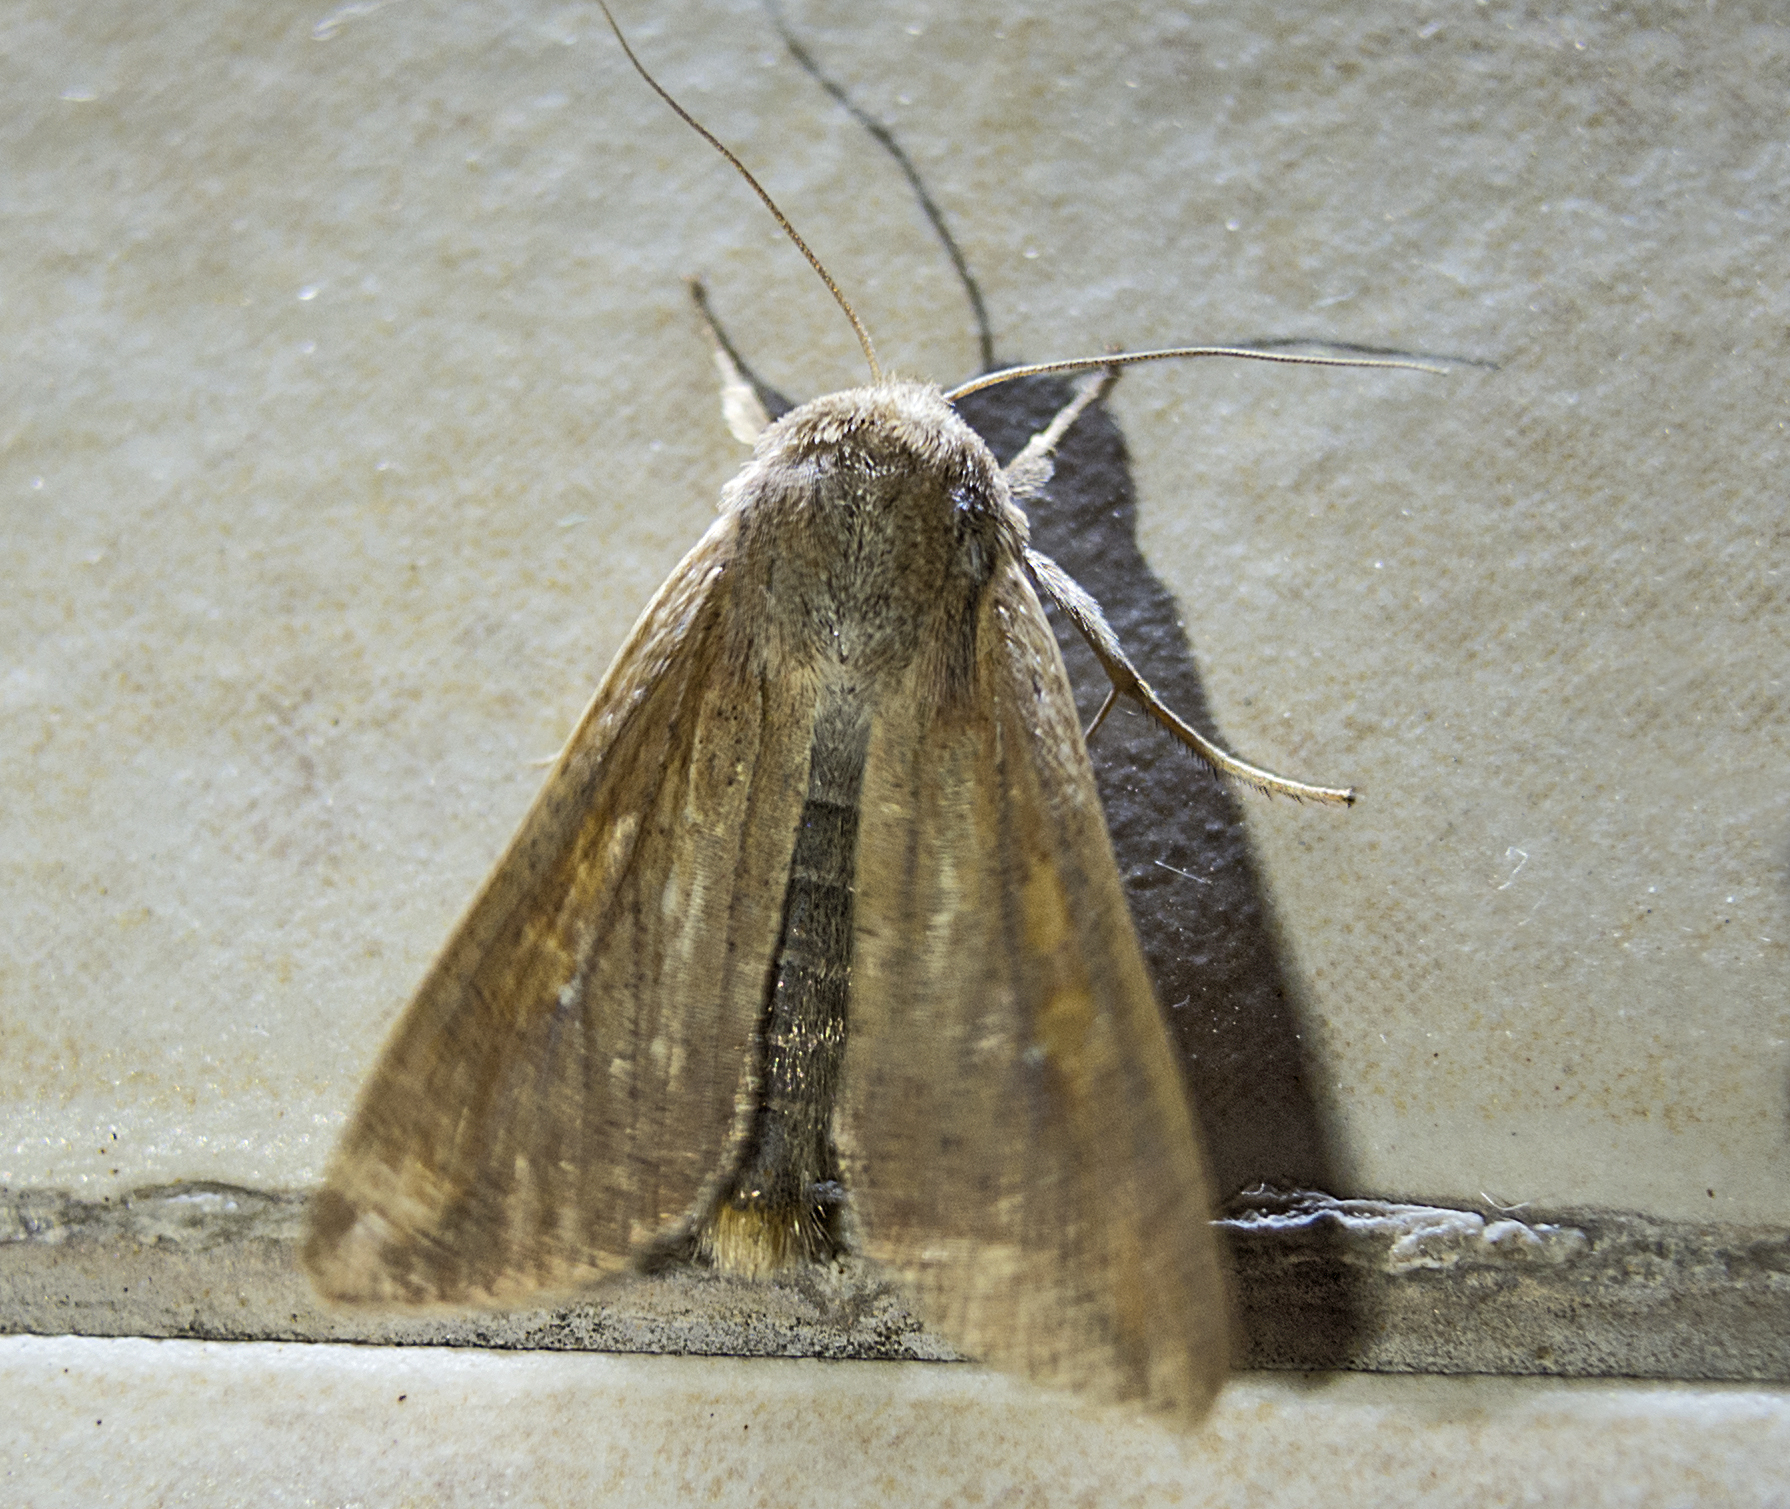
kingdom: Animalia
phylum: Arthropoda
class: Insecta
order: Lepidoptera
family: Noctuidae
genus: Mythimna
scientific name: Mythimna unipuncta
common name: White-speck
